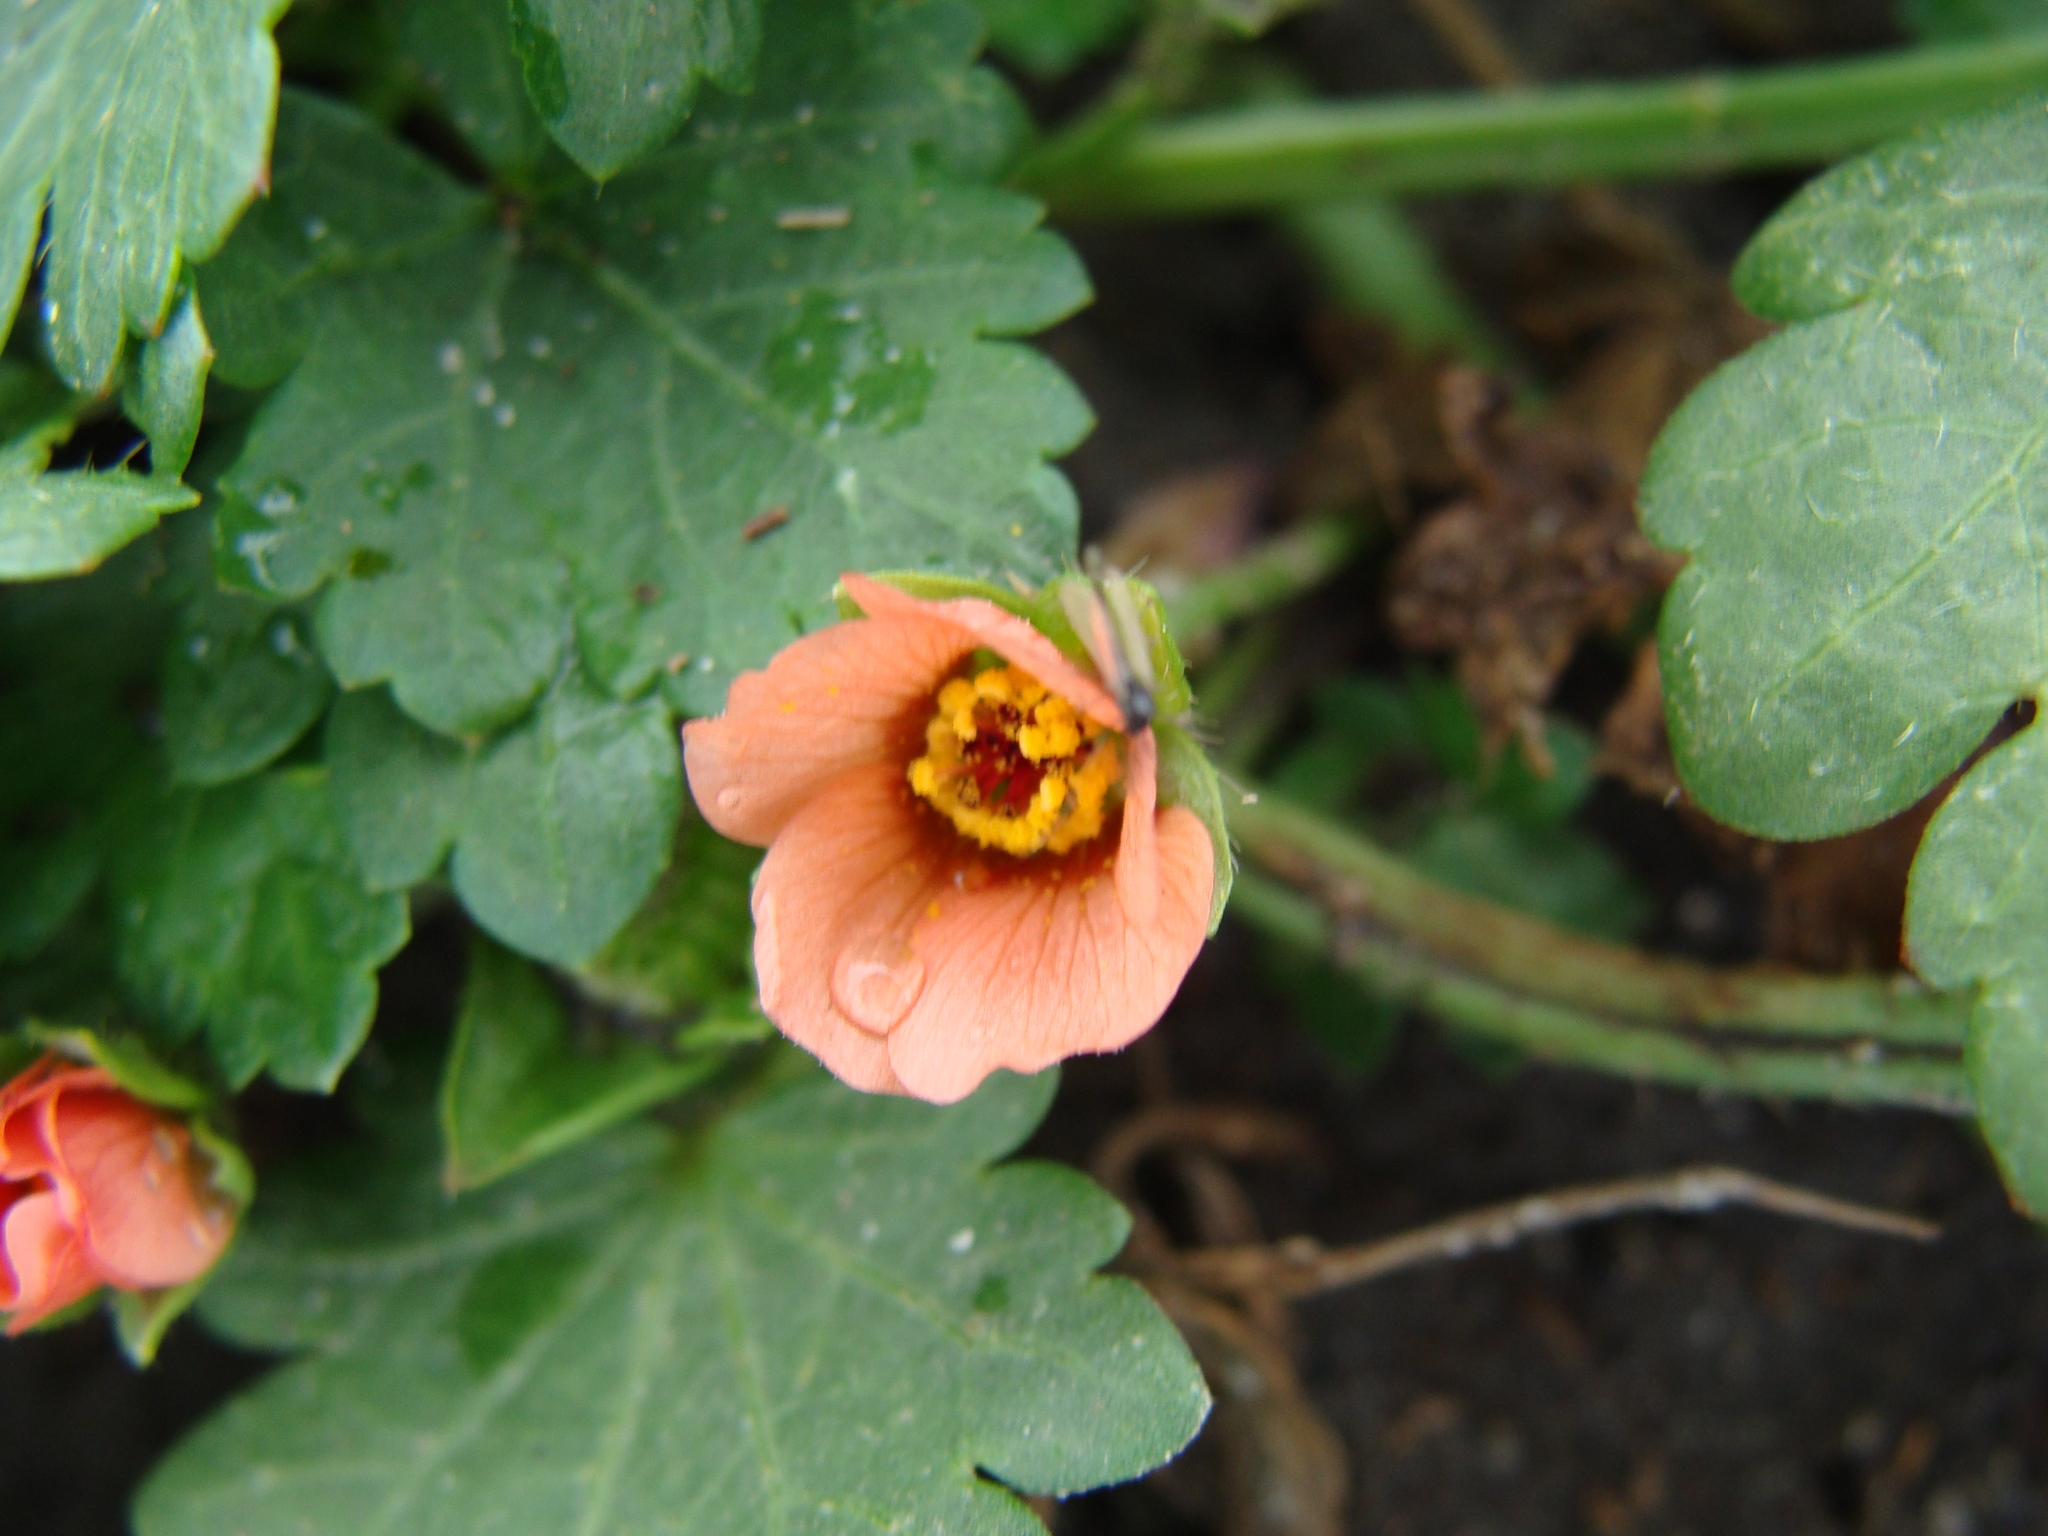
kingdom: Plantae
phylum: Tracheophyta
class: Magnoliopsida
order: Malvales
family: Malvaceae
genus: Modiola
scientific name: Modiola caroliniana
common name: Carolina bristlemallow
